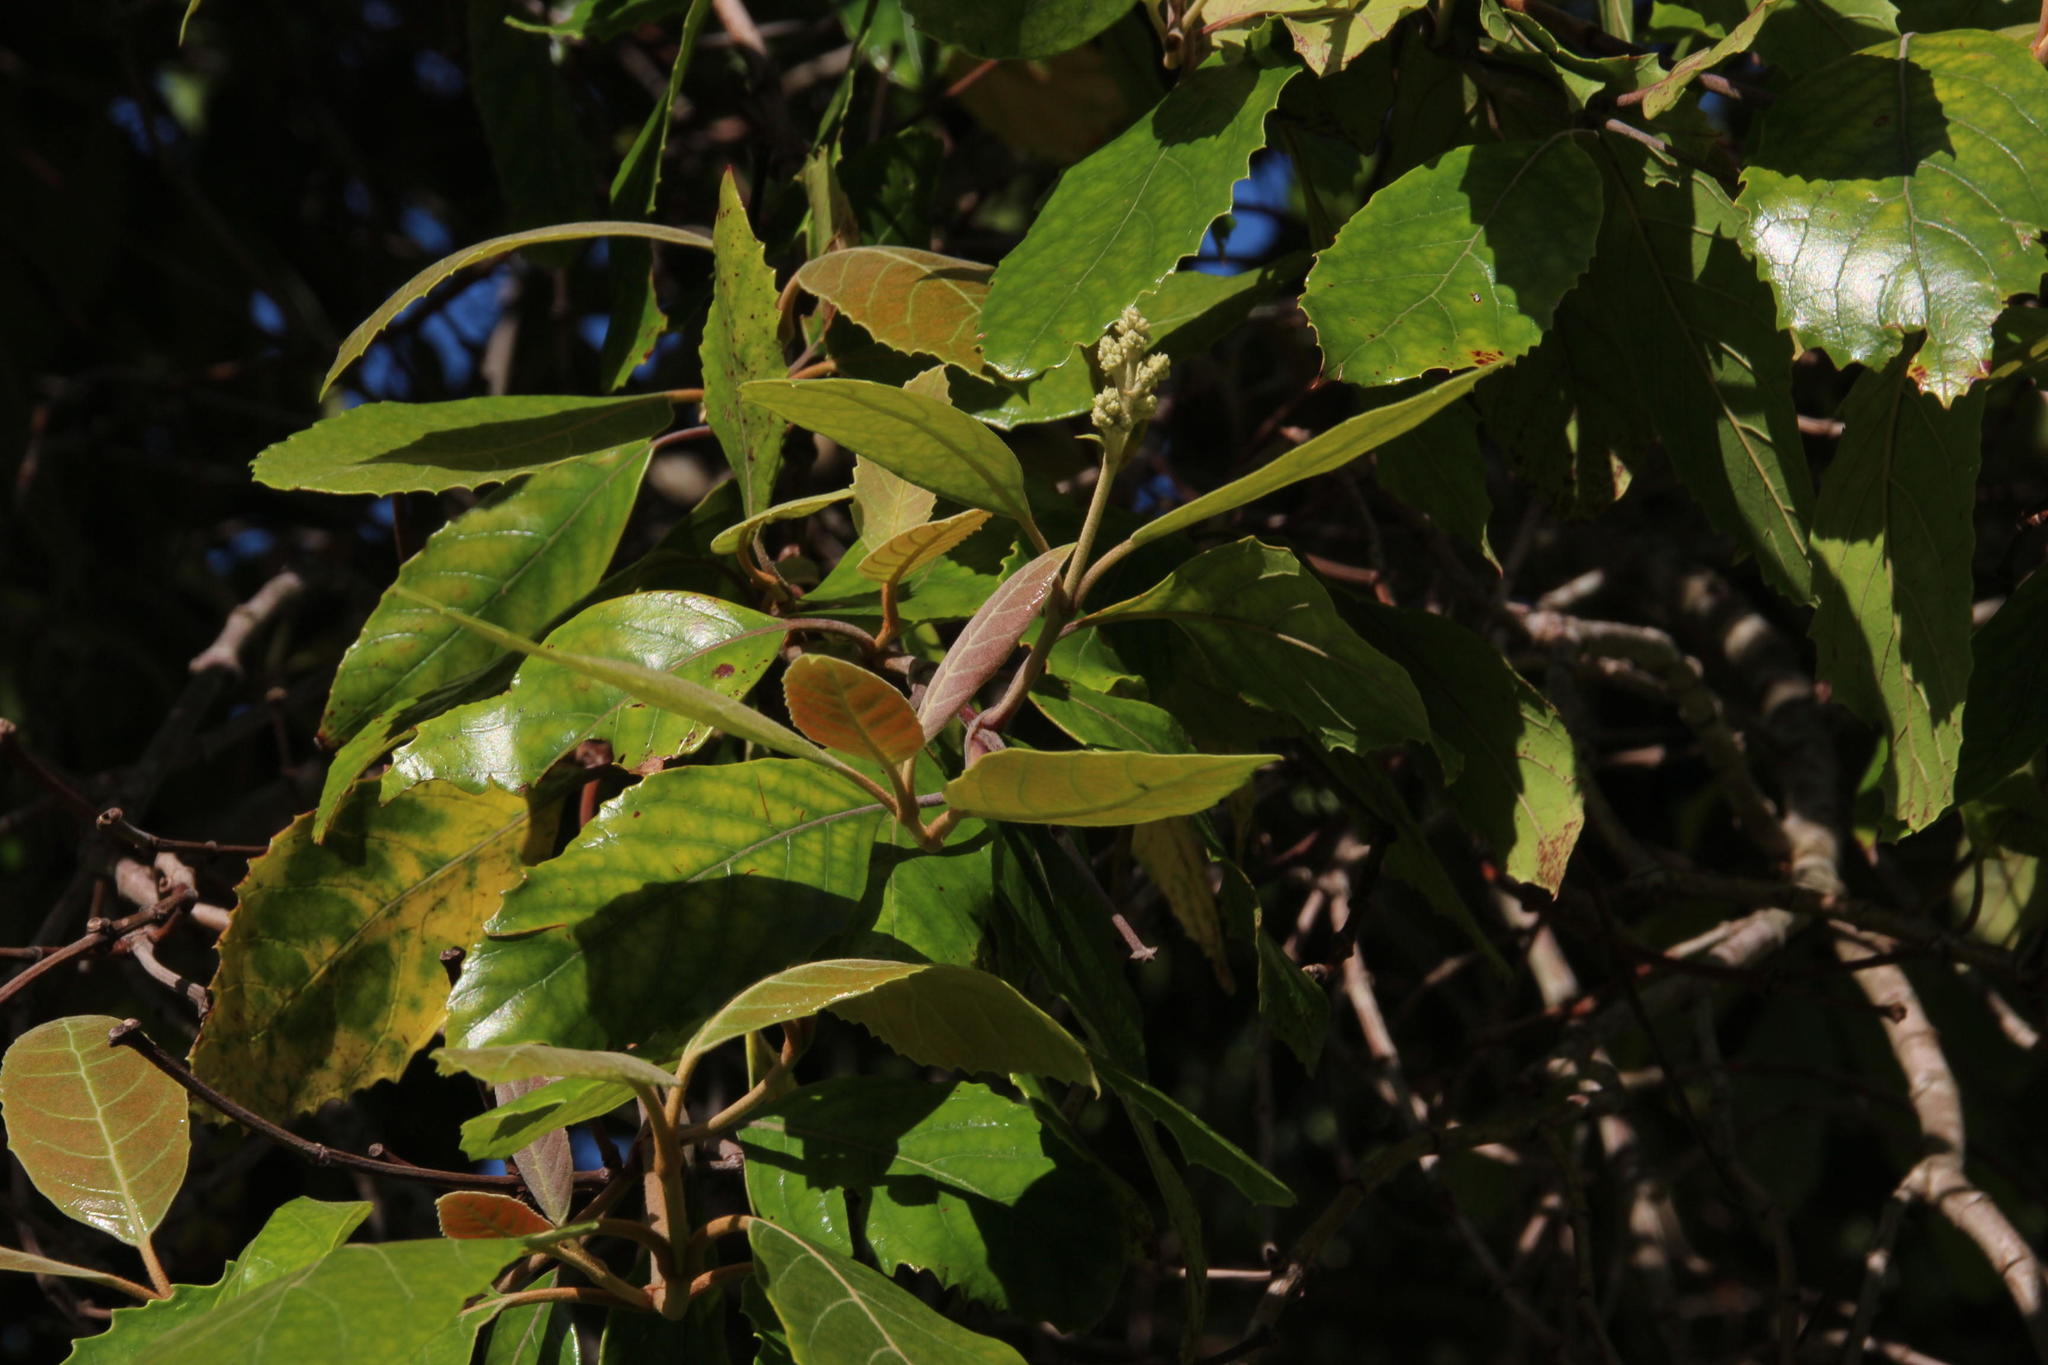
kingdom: Plantae
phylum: Tracheophyta
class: Magnoliopsida
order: Cornales
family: Curtisiaceae
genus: Curtisia
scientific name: Curtisia dentata
